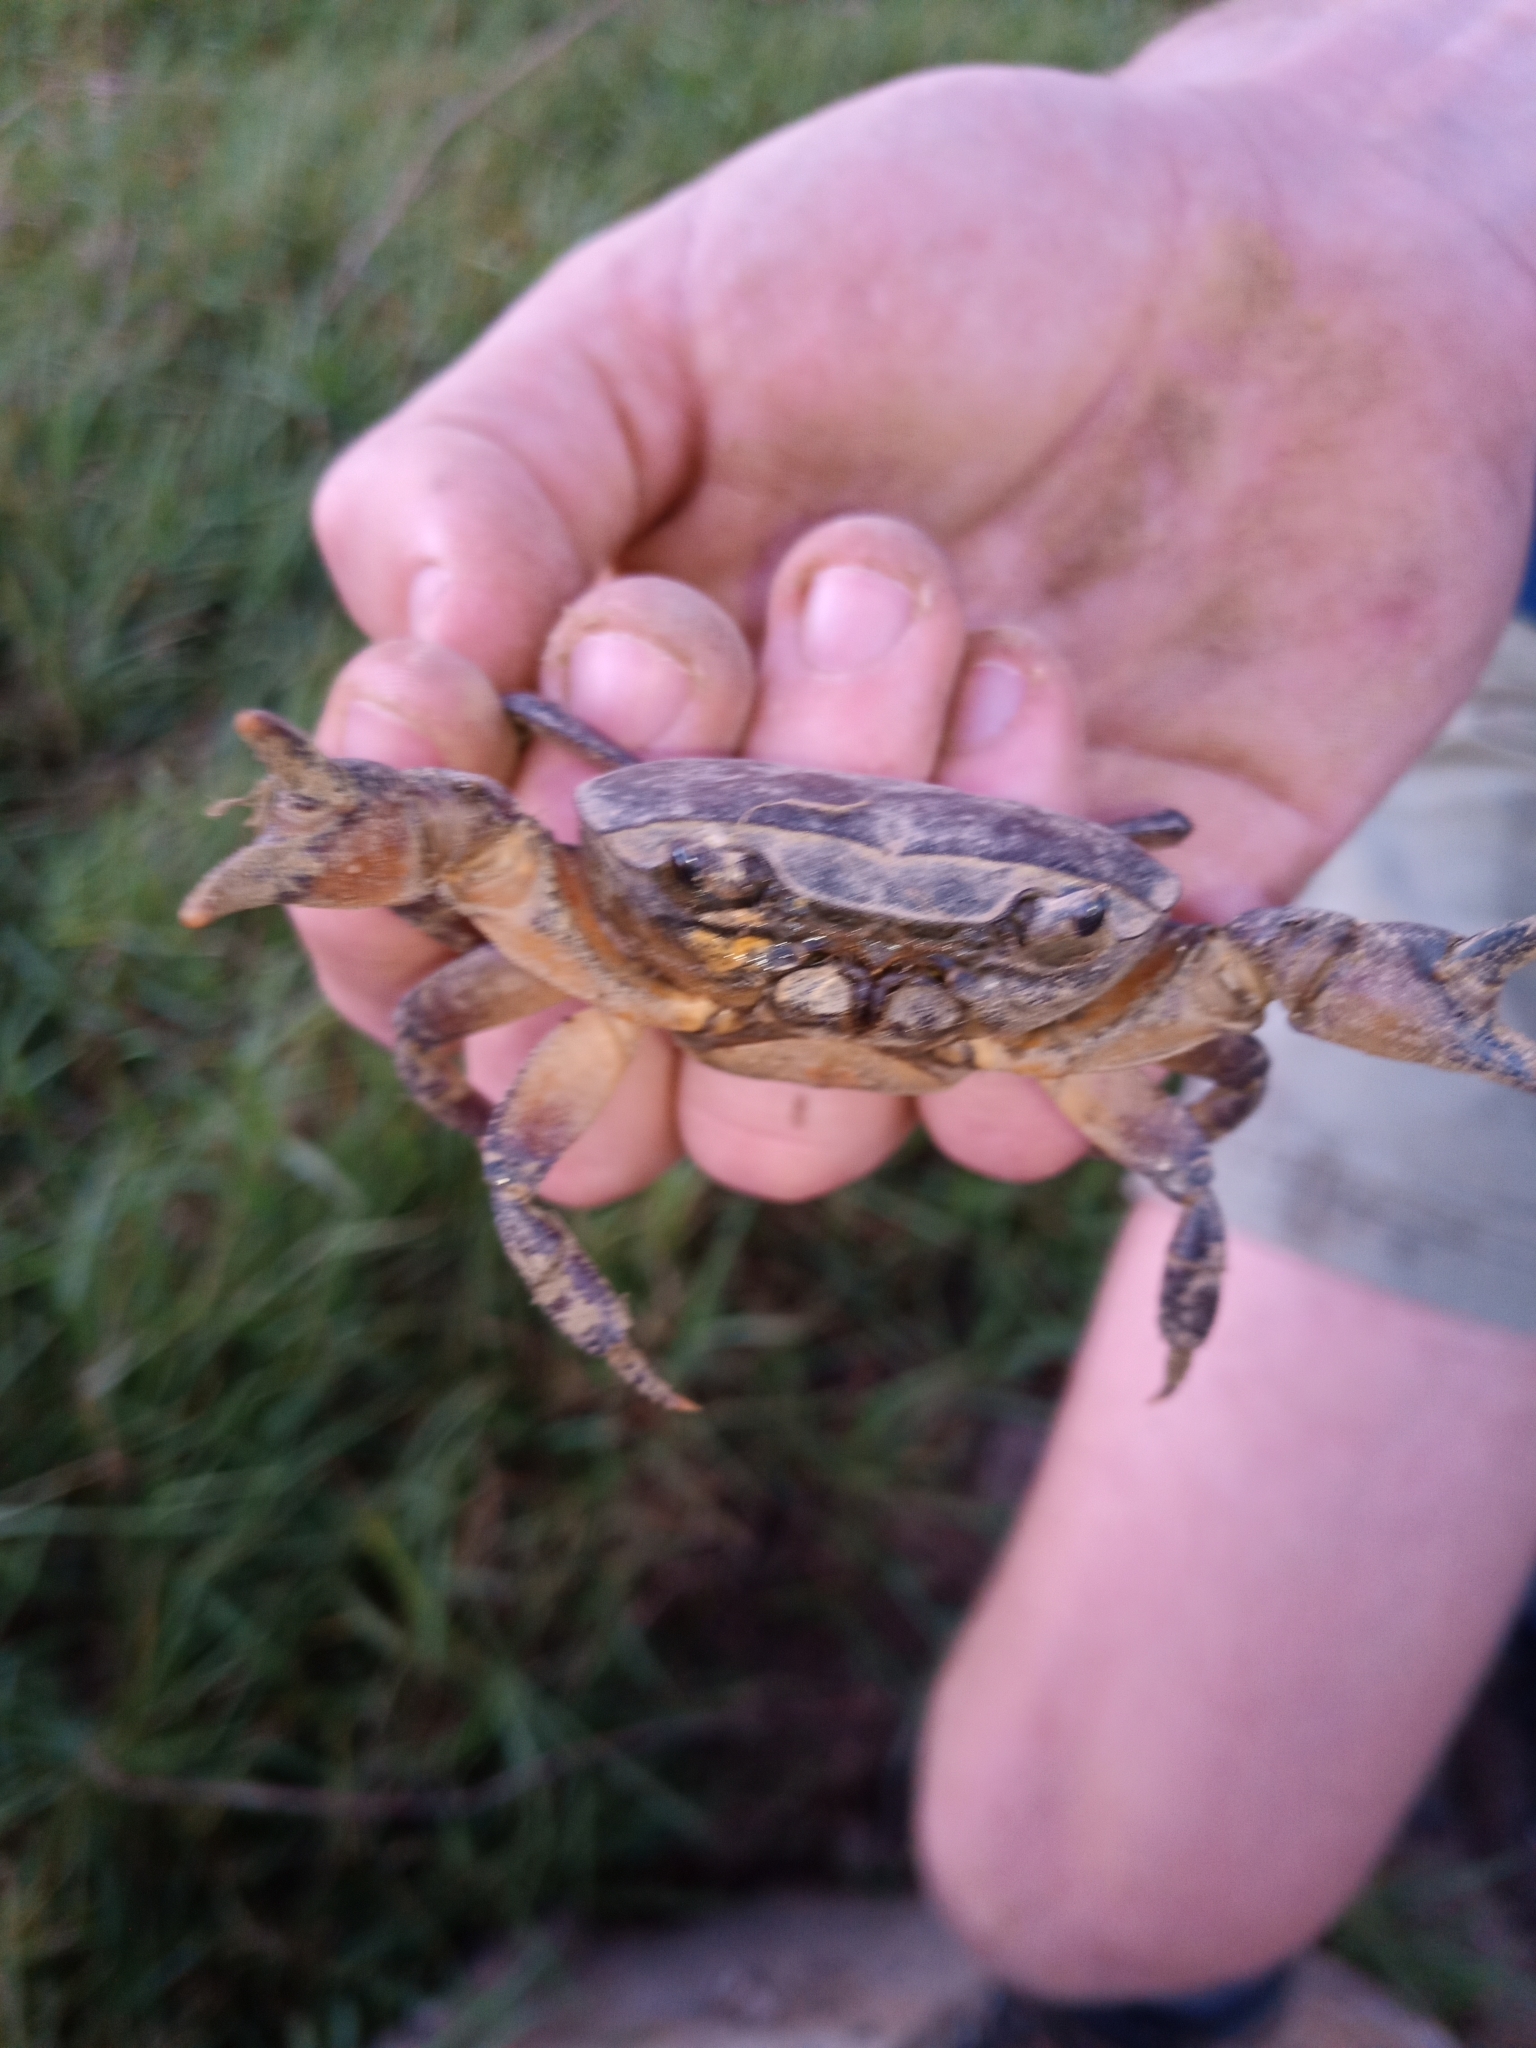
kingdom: Animalia
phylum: Arthropoda
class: Malacostraca
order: Decapoda
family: Potamonautidae
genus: Potamonautes
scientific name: Potamonautes perlatus
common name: Cape river crab
